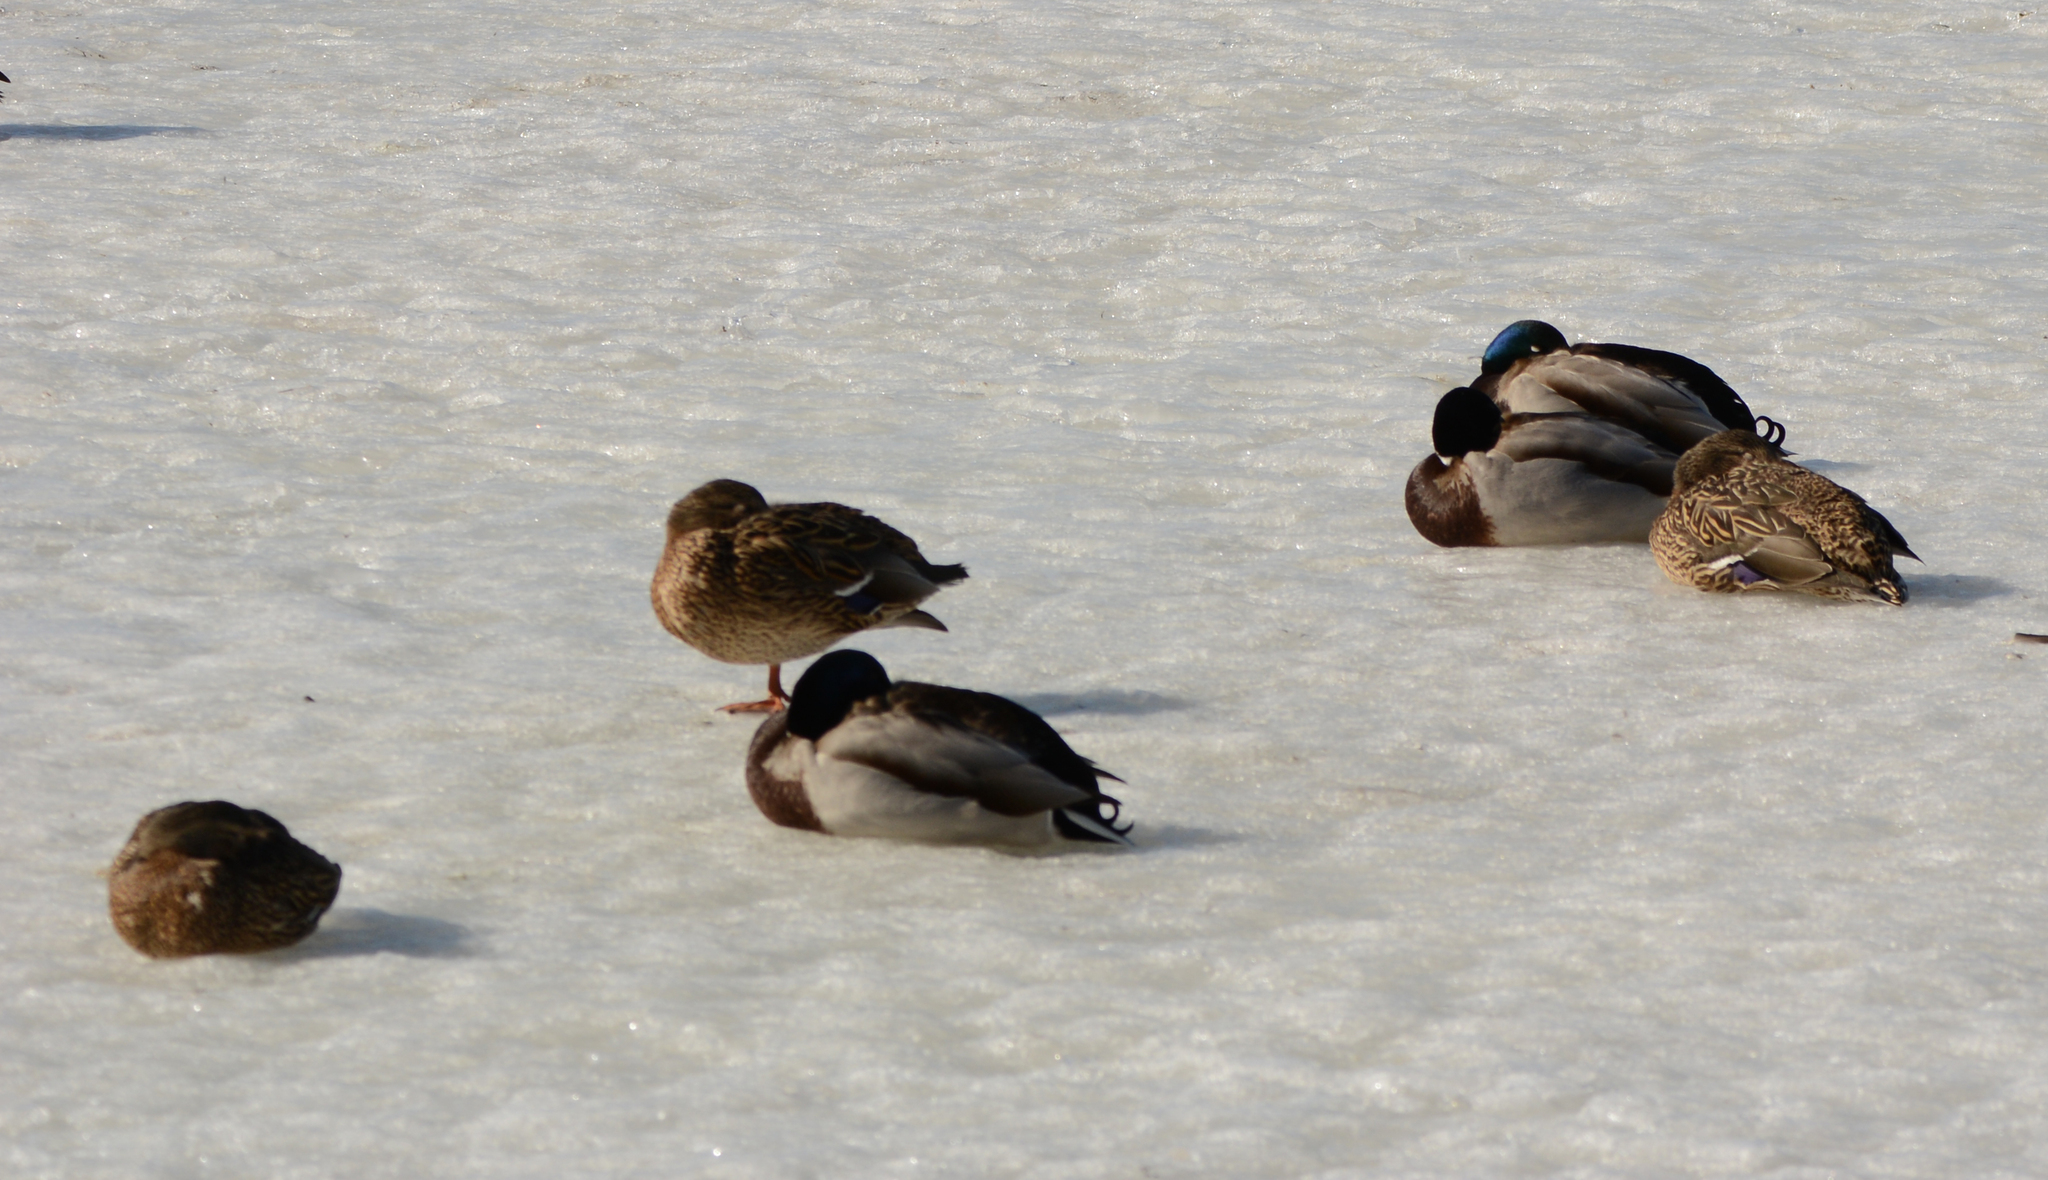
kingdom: Animalia
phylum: Chordata
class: Aves
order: Anseriformes
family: Anatidae
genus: Anas
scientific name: Anas platyrhynchos
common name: Mallard
